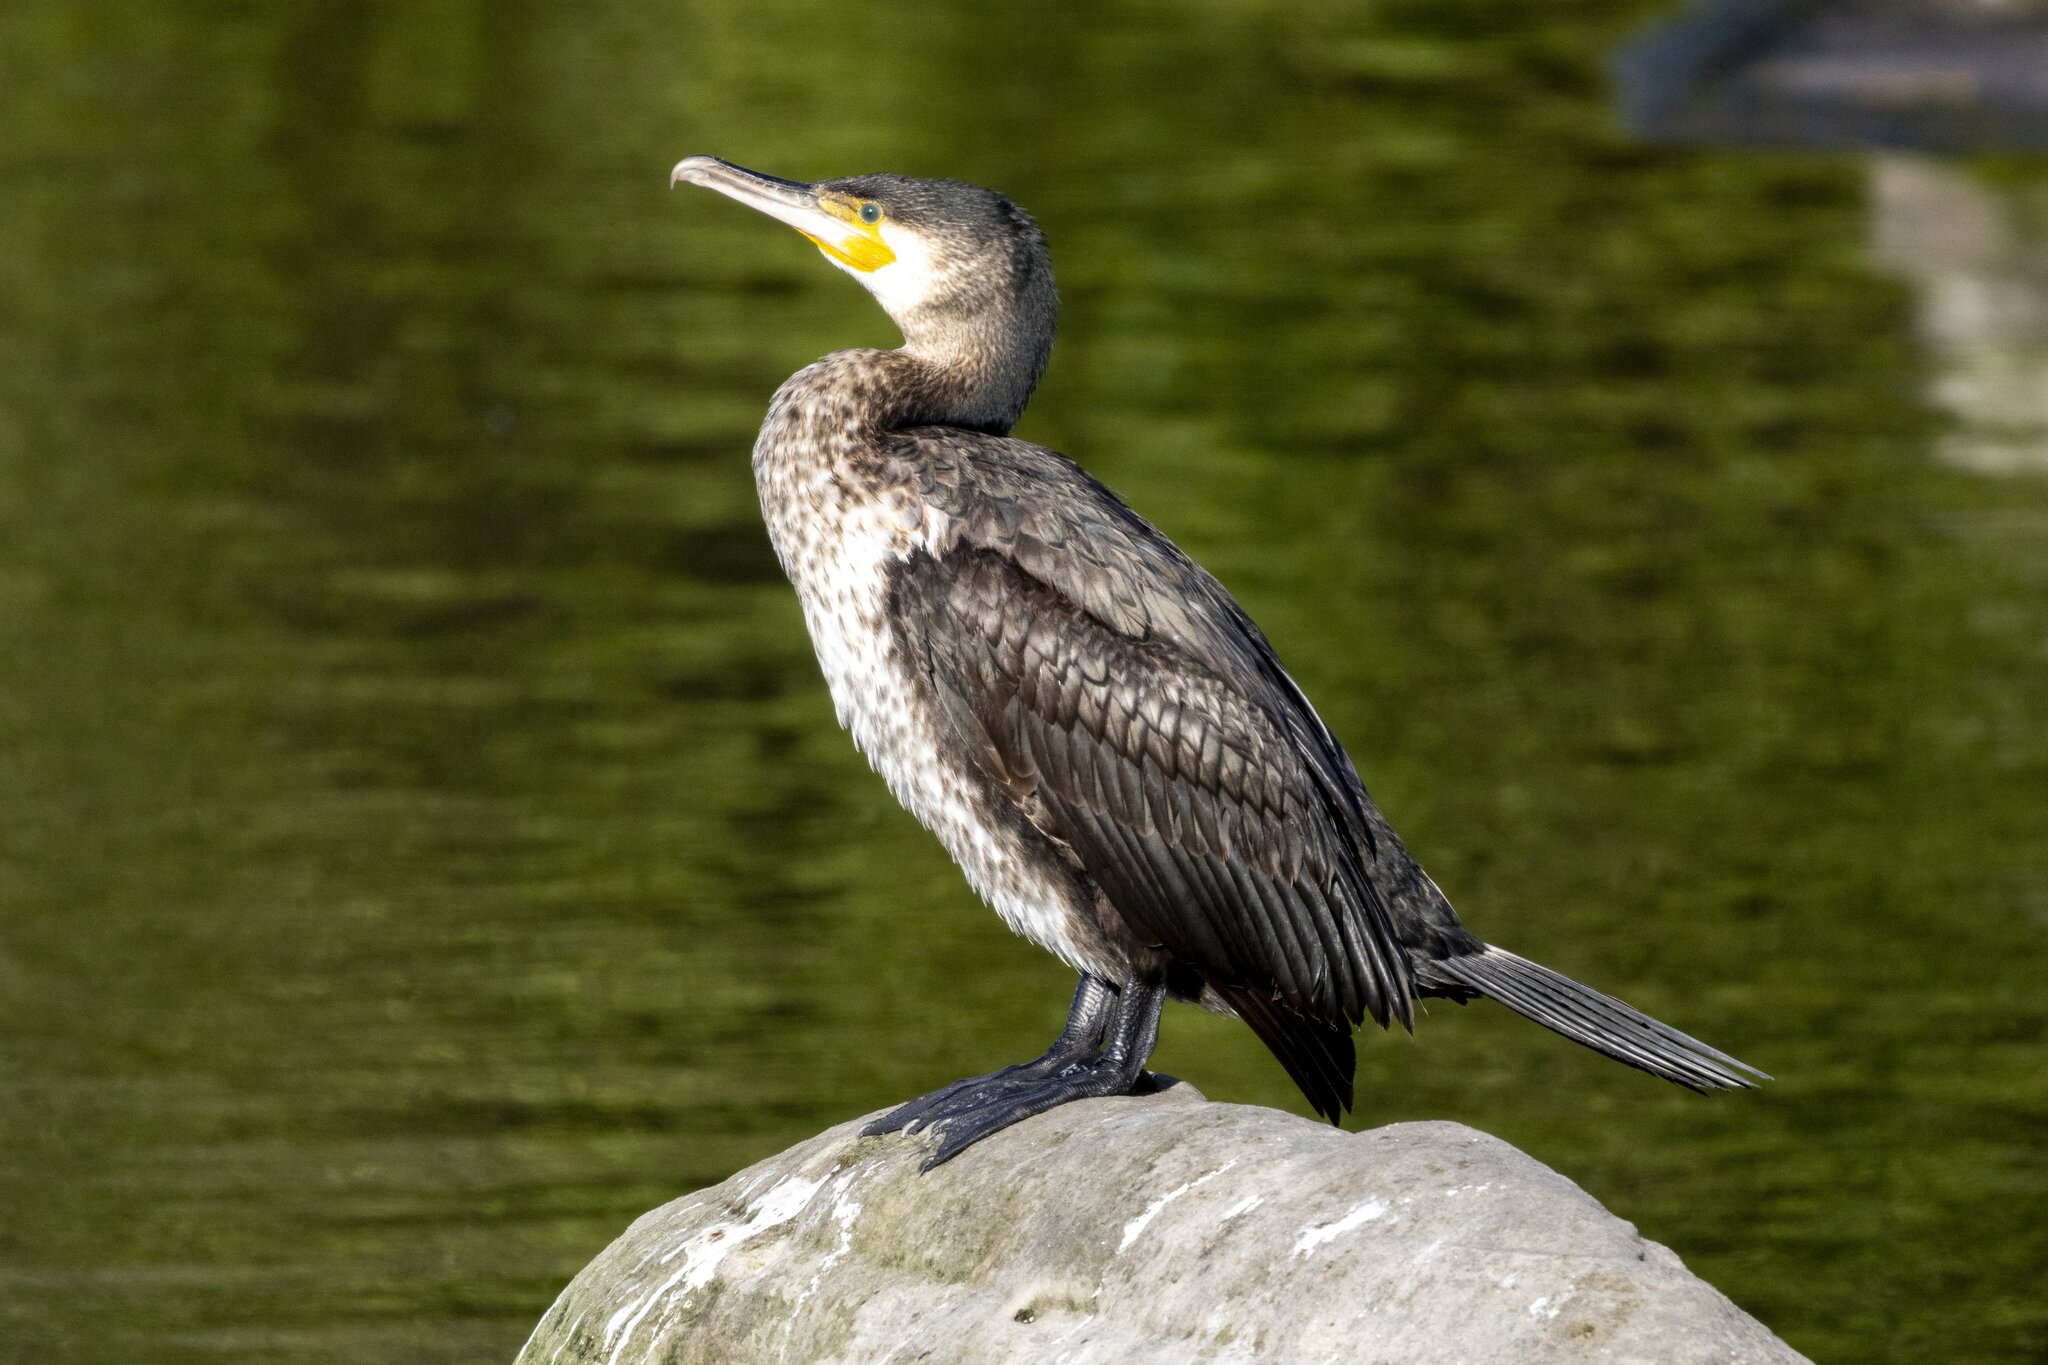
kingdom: Animalia
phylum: Chordata
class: Aves
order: Suliformes
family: Phalacrocoracidae
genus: Phalacrocorax
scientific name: Phalacrocorax carbo
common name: Great cormorant
